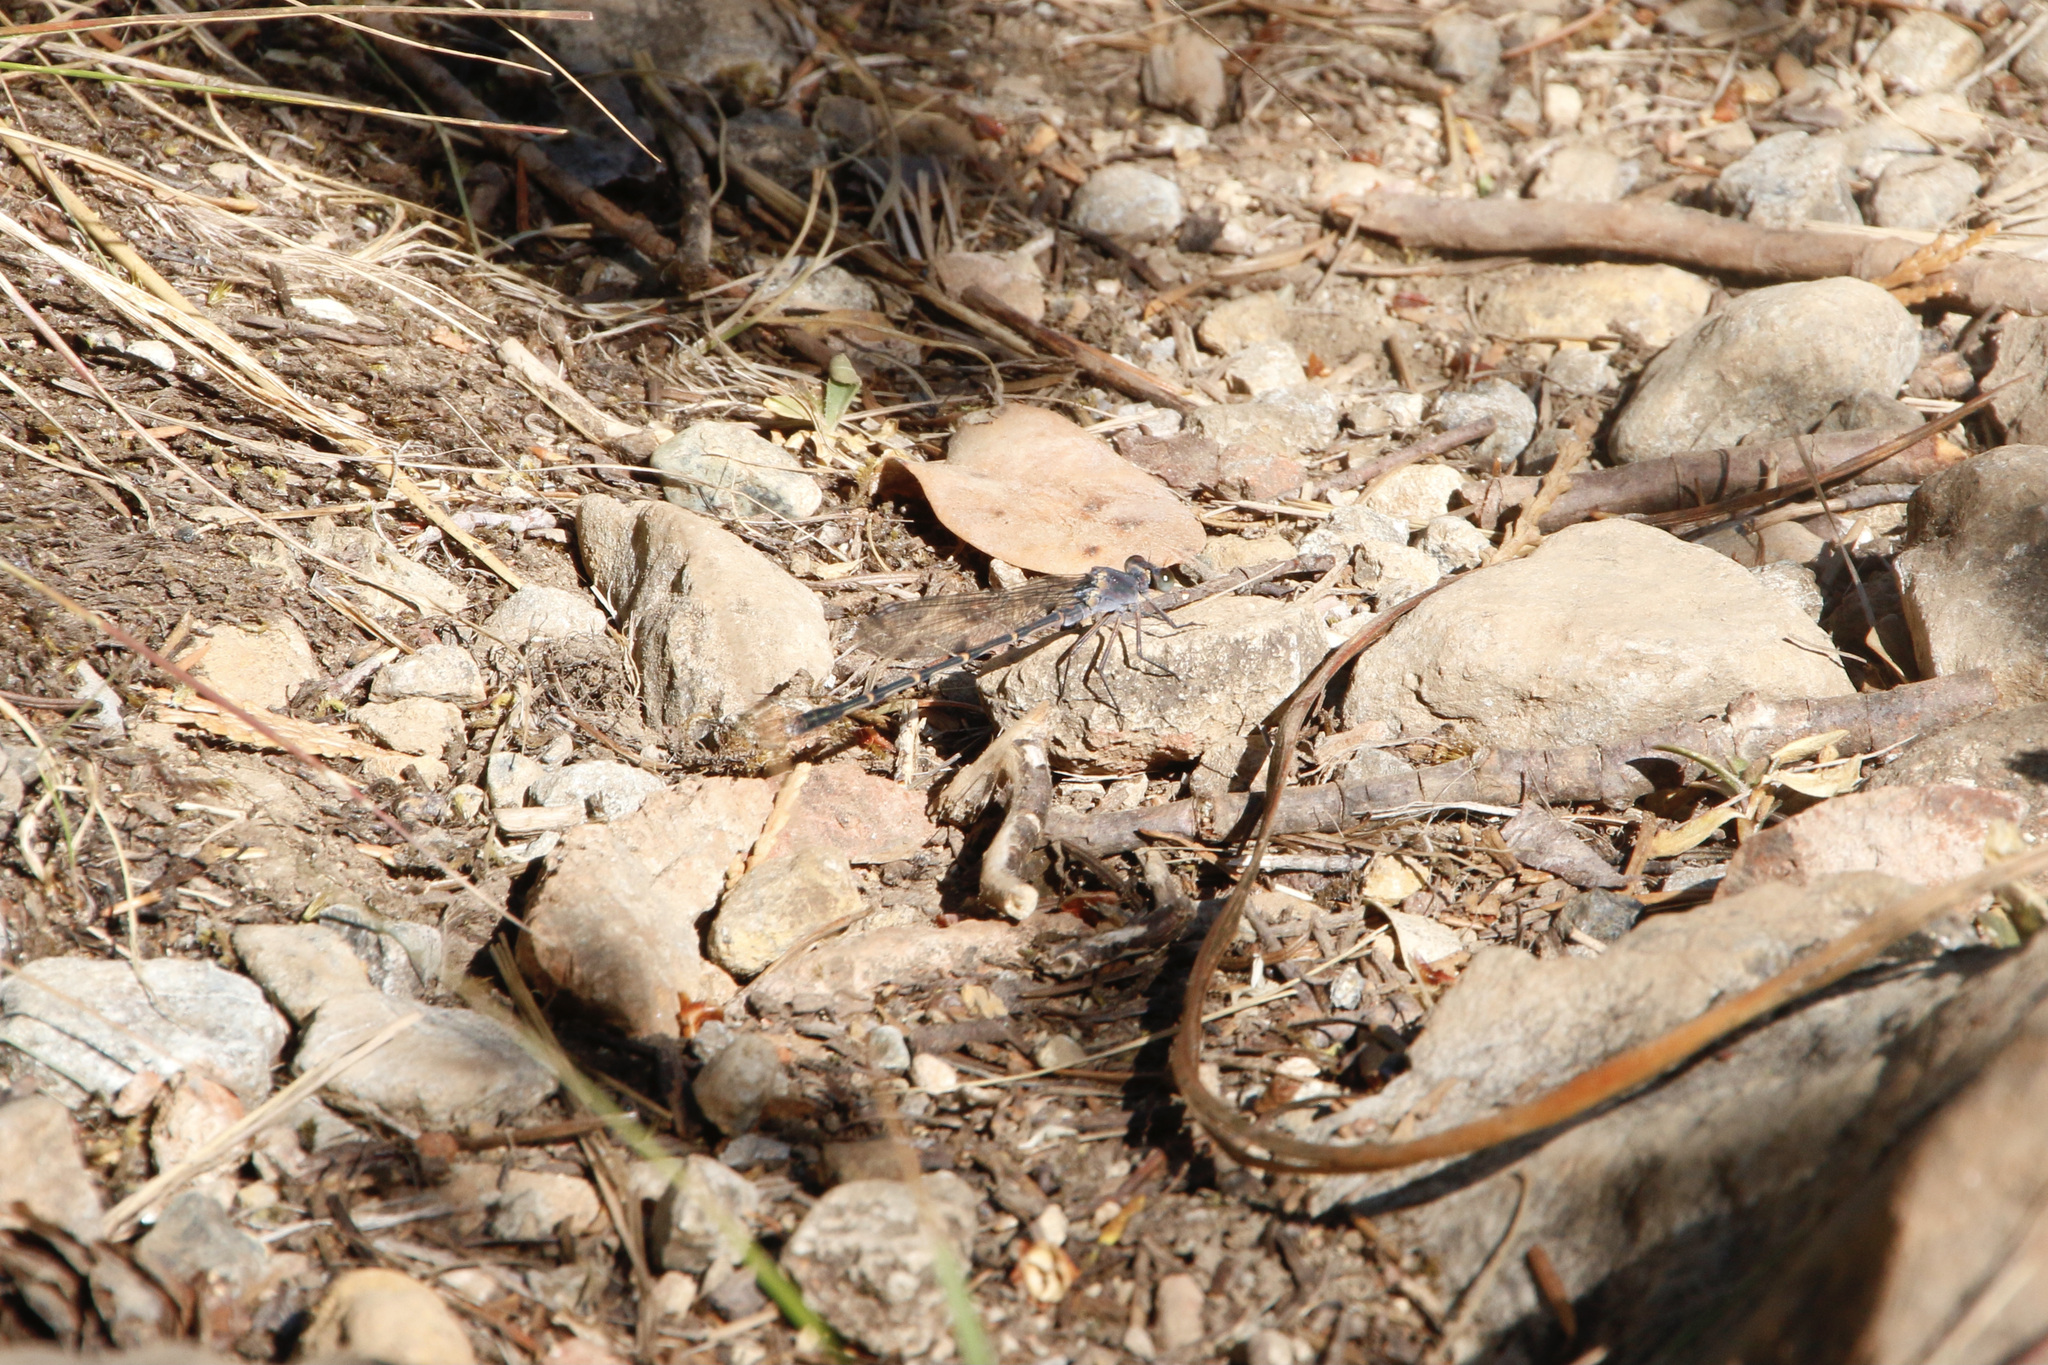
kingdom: Animalia
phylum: Arthropoda
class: Insecta
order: Odonata
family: Coenagrionidae
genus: Argia
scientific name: Argia lugens
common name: Sooty dancer
